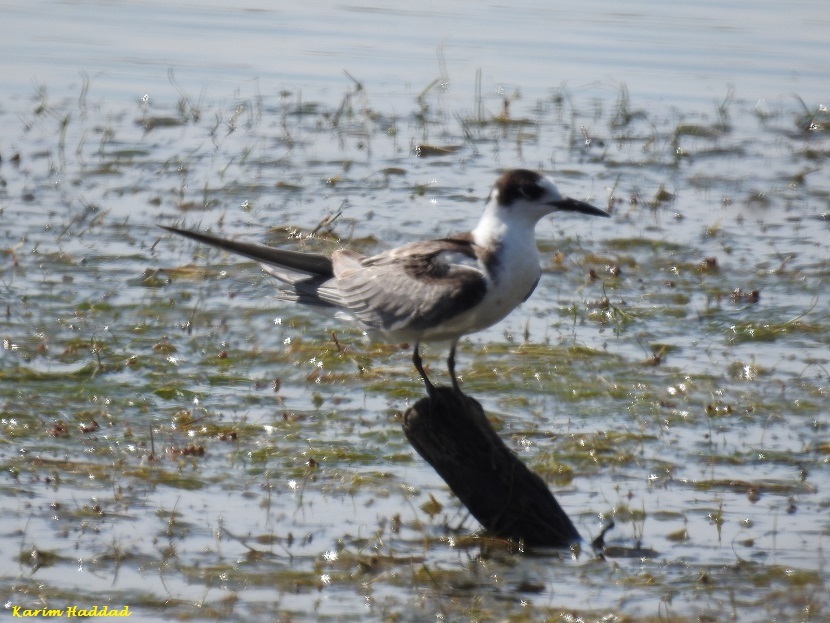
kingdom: Animalia
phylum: Chordata
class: Aves
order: Charadriiformes
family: Laridae
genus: Chlidonias
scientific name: Chlidonias niger
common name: Black tern
